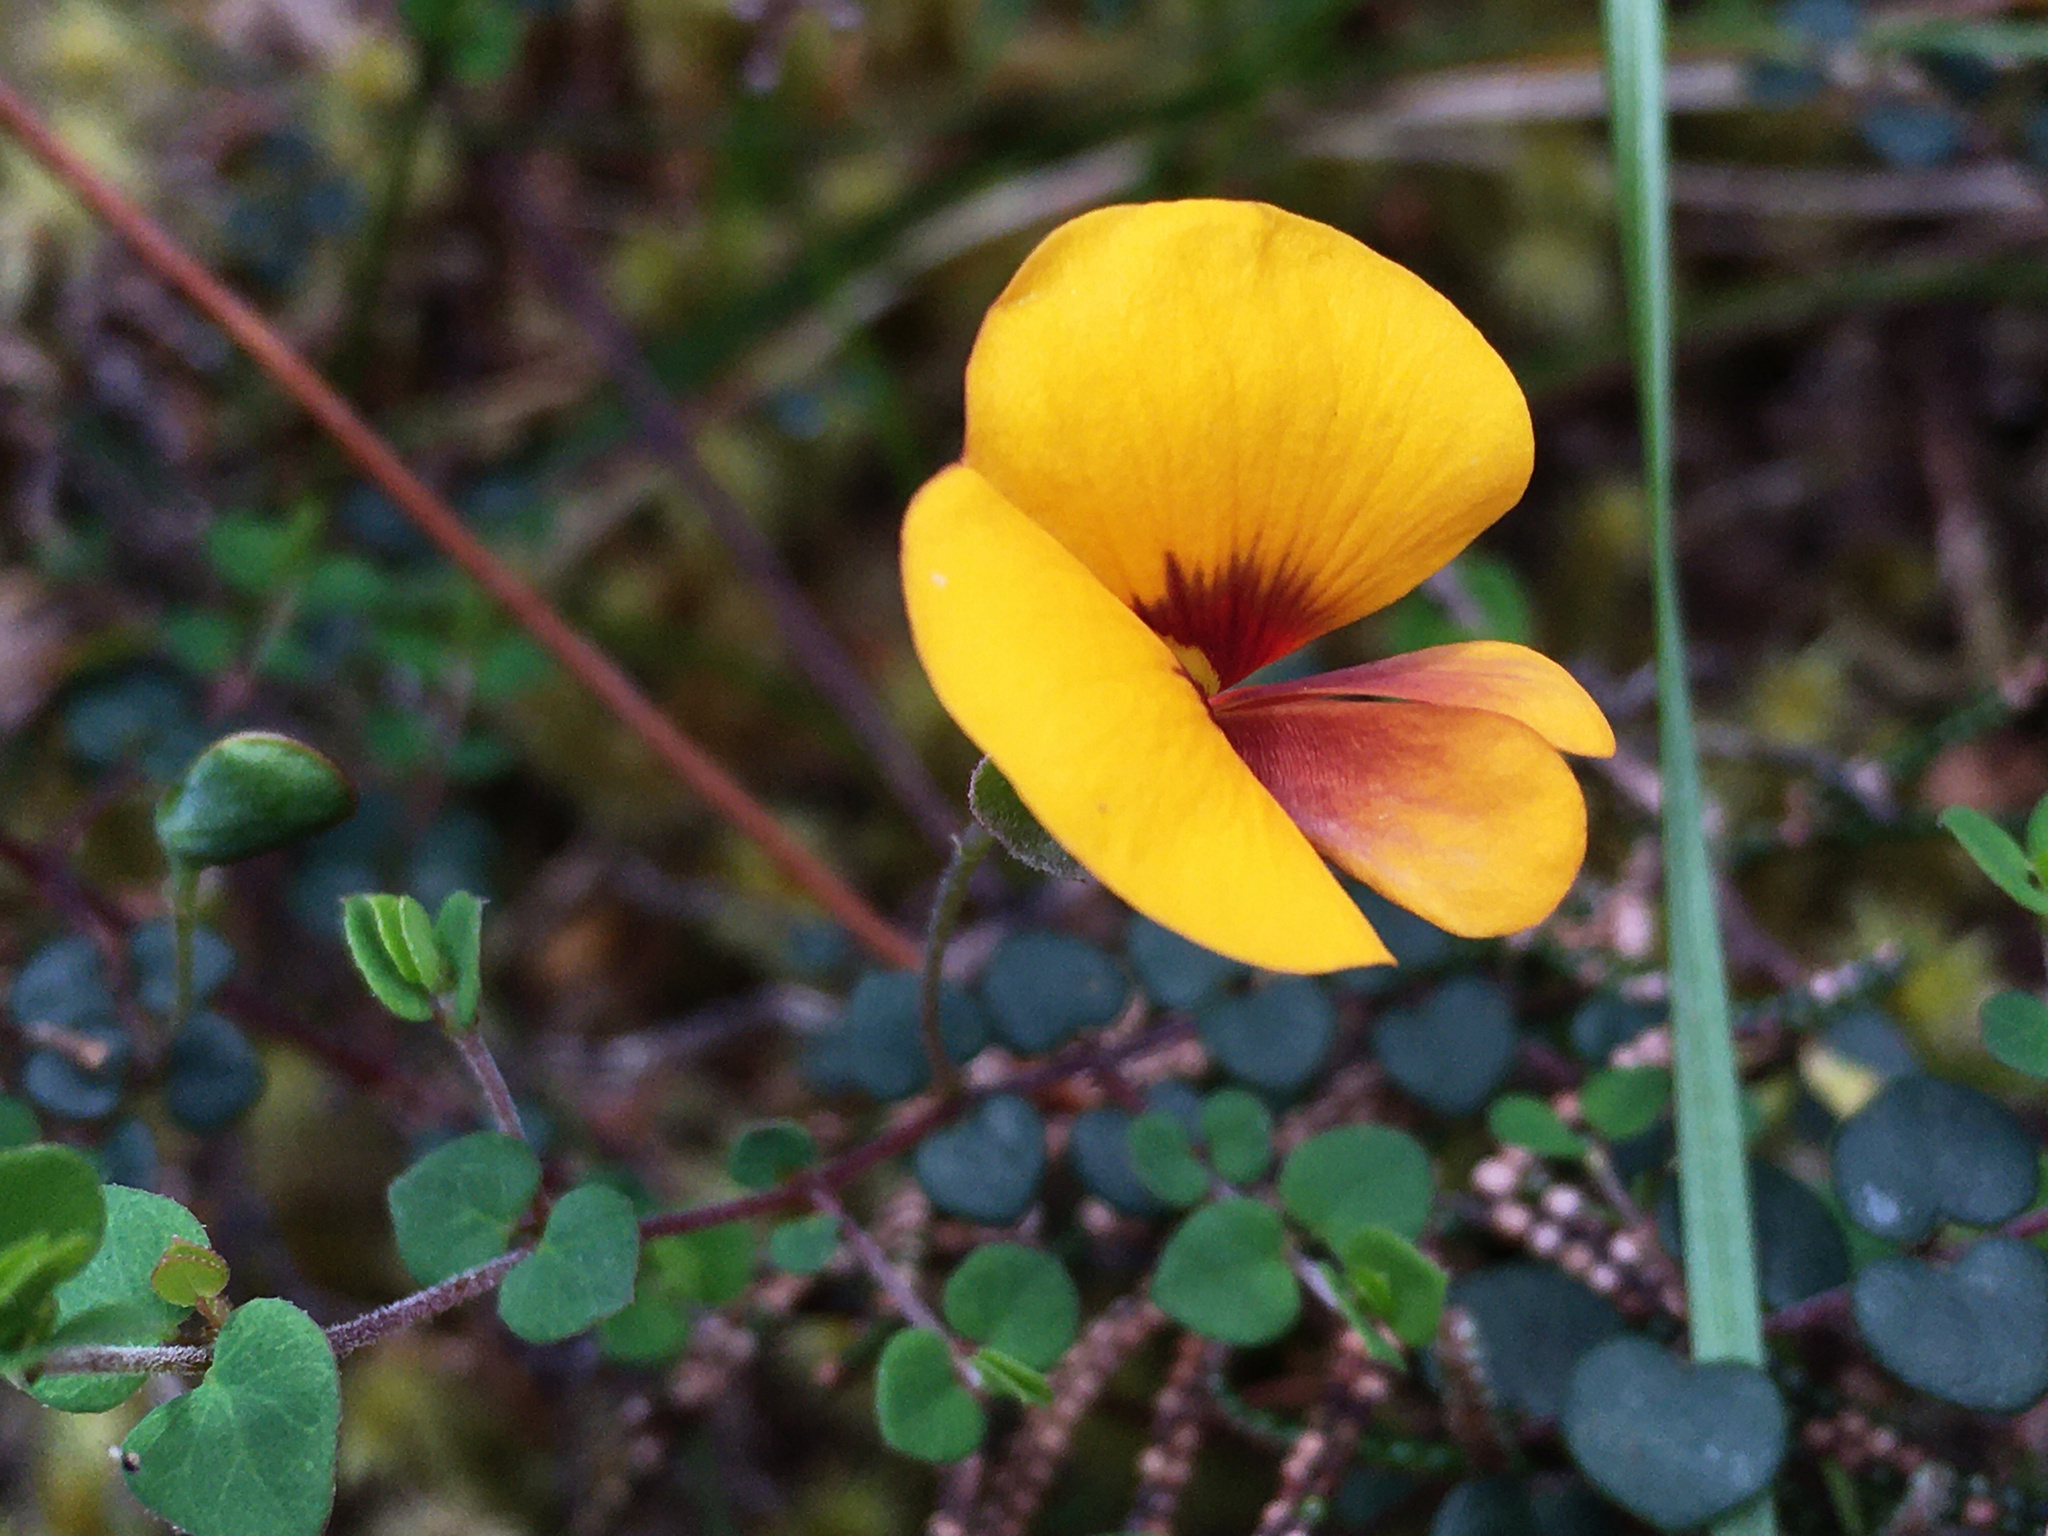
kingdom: Plantae
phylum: Tracheophyta
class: Magnoliopsida
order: Fabales
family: Fabaceae
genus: Bossiaea
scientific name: Bossiaea hendersonii
